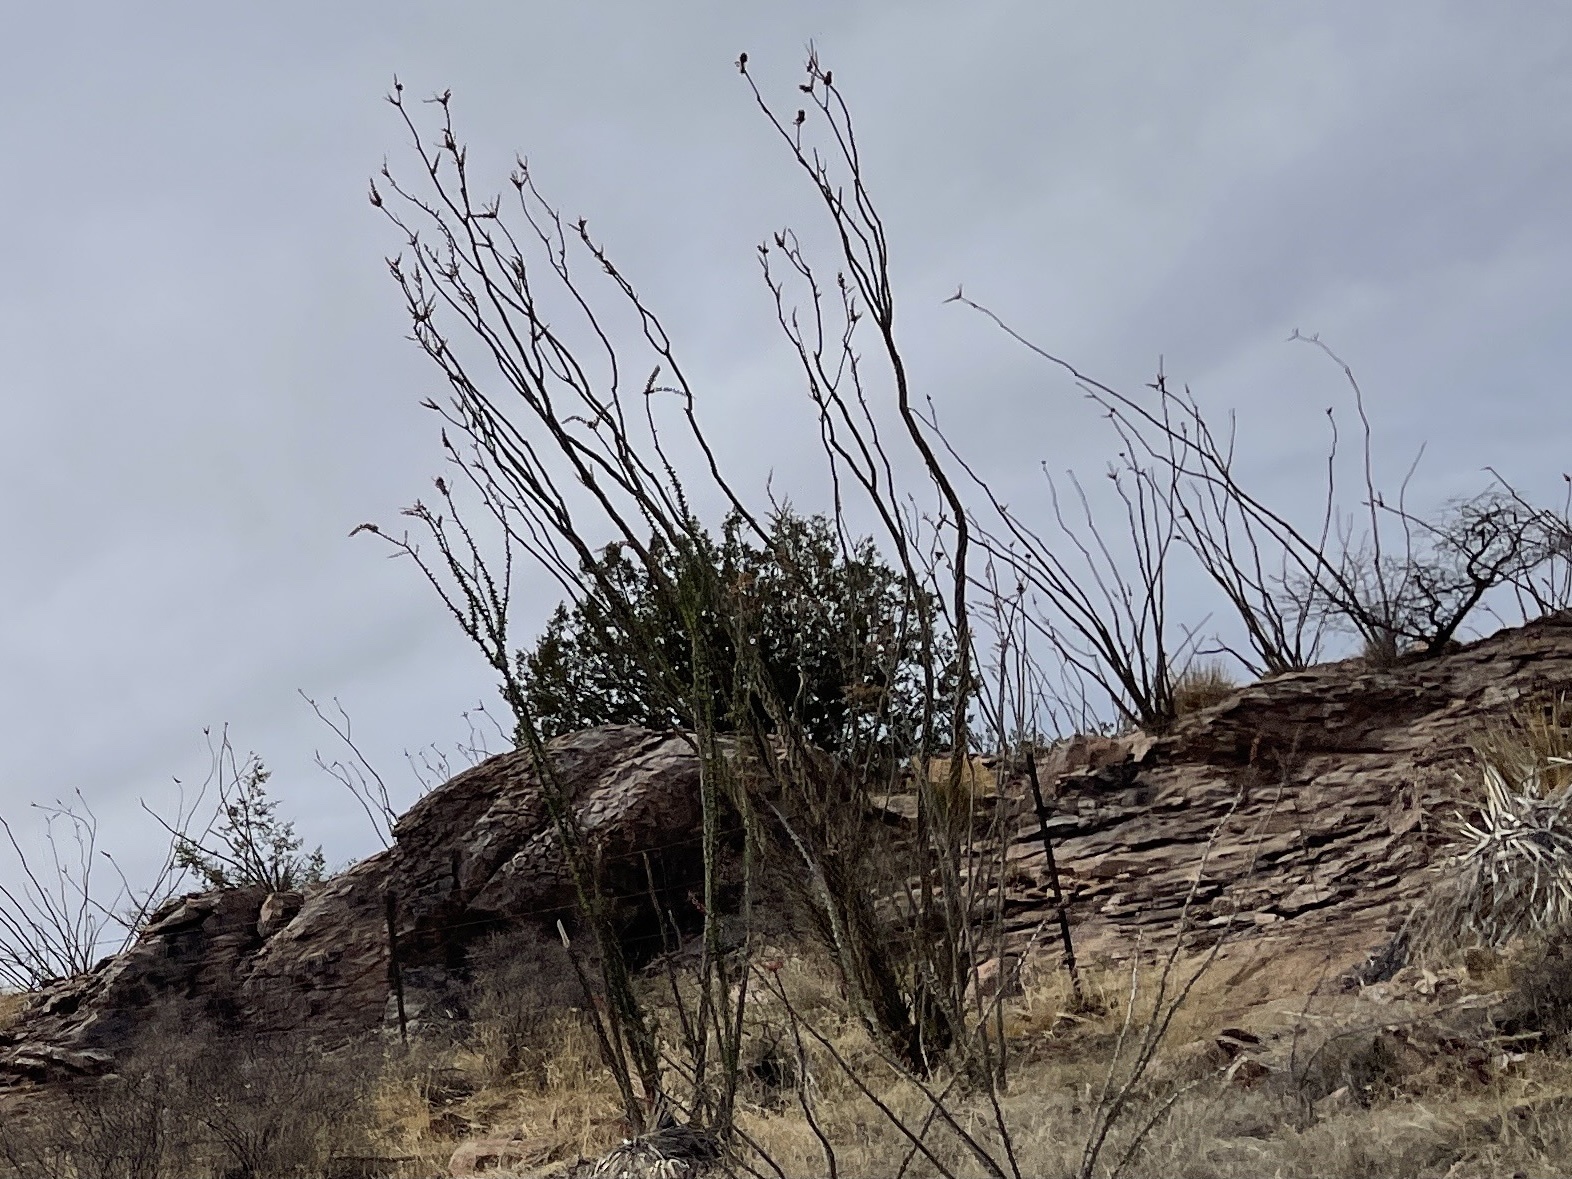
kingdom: Plantae
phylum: Tracheophyta
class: Magnoliopsida
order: Ericales
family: Fouquieriaceae
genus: Fouquieria
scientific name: Fouquieria splendens
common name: Vine-cactus
